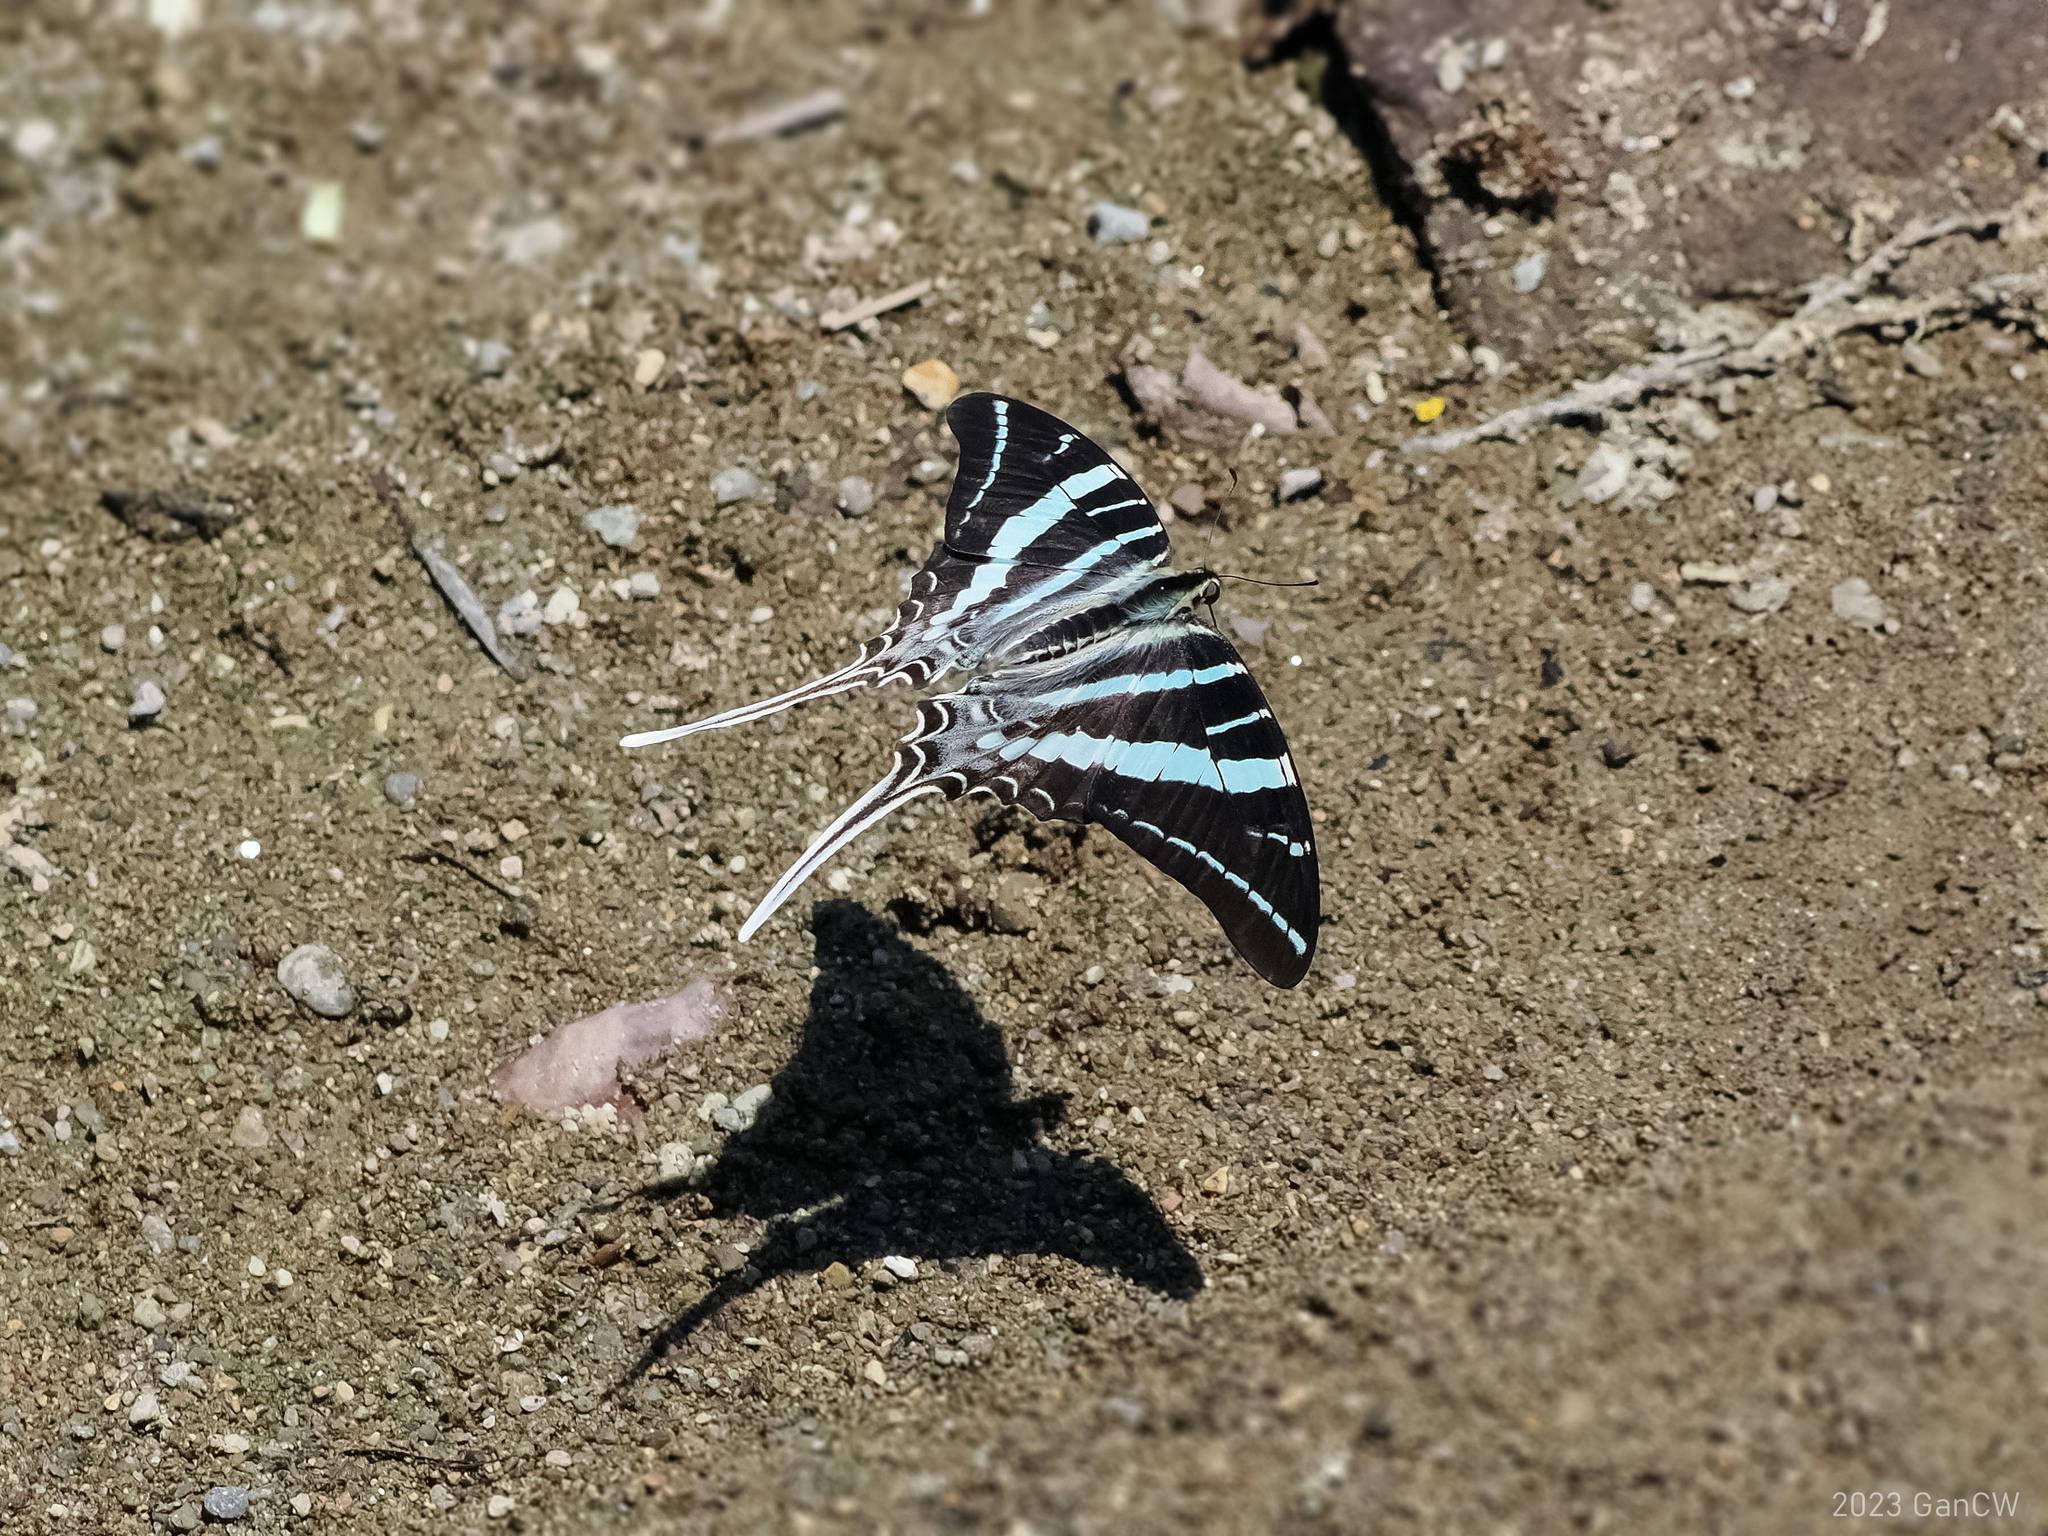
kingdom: Animalia
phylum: Arthropoda
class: Insecta
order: Lepidoptera
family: Papilionidae
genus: Graphium
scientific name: Graphium rhesus
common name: Monkey swordtail
